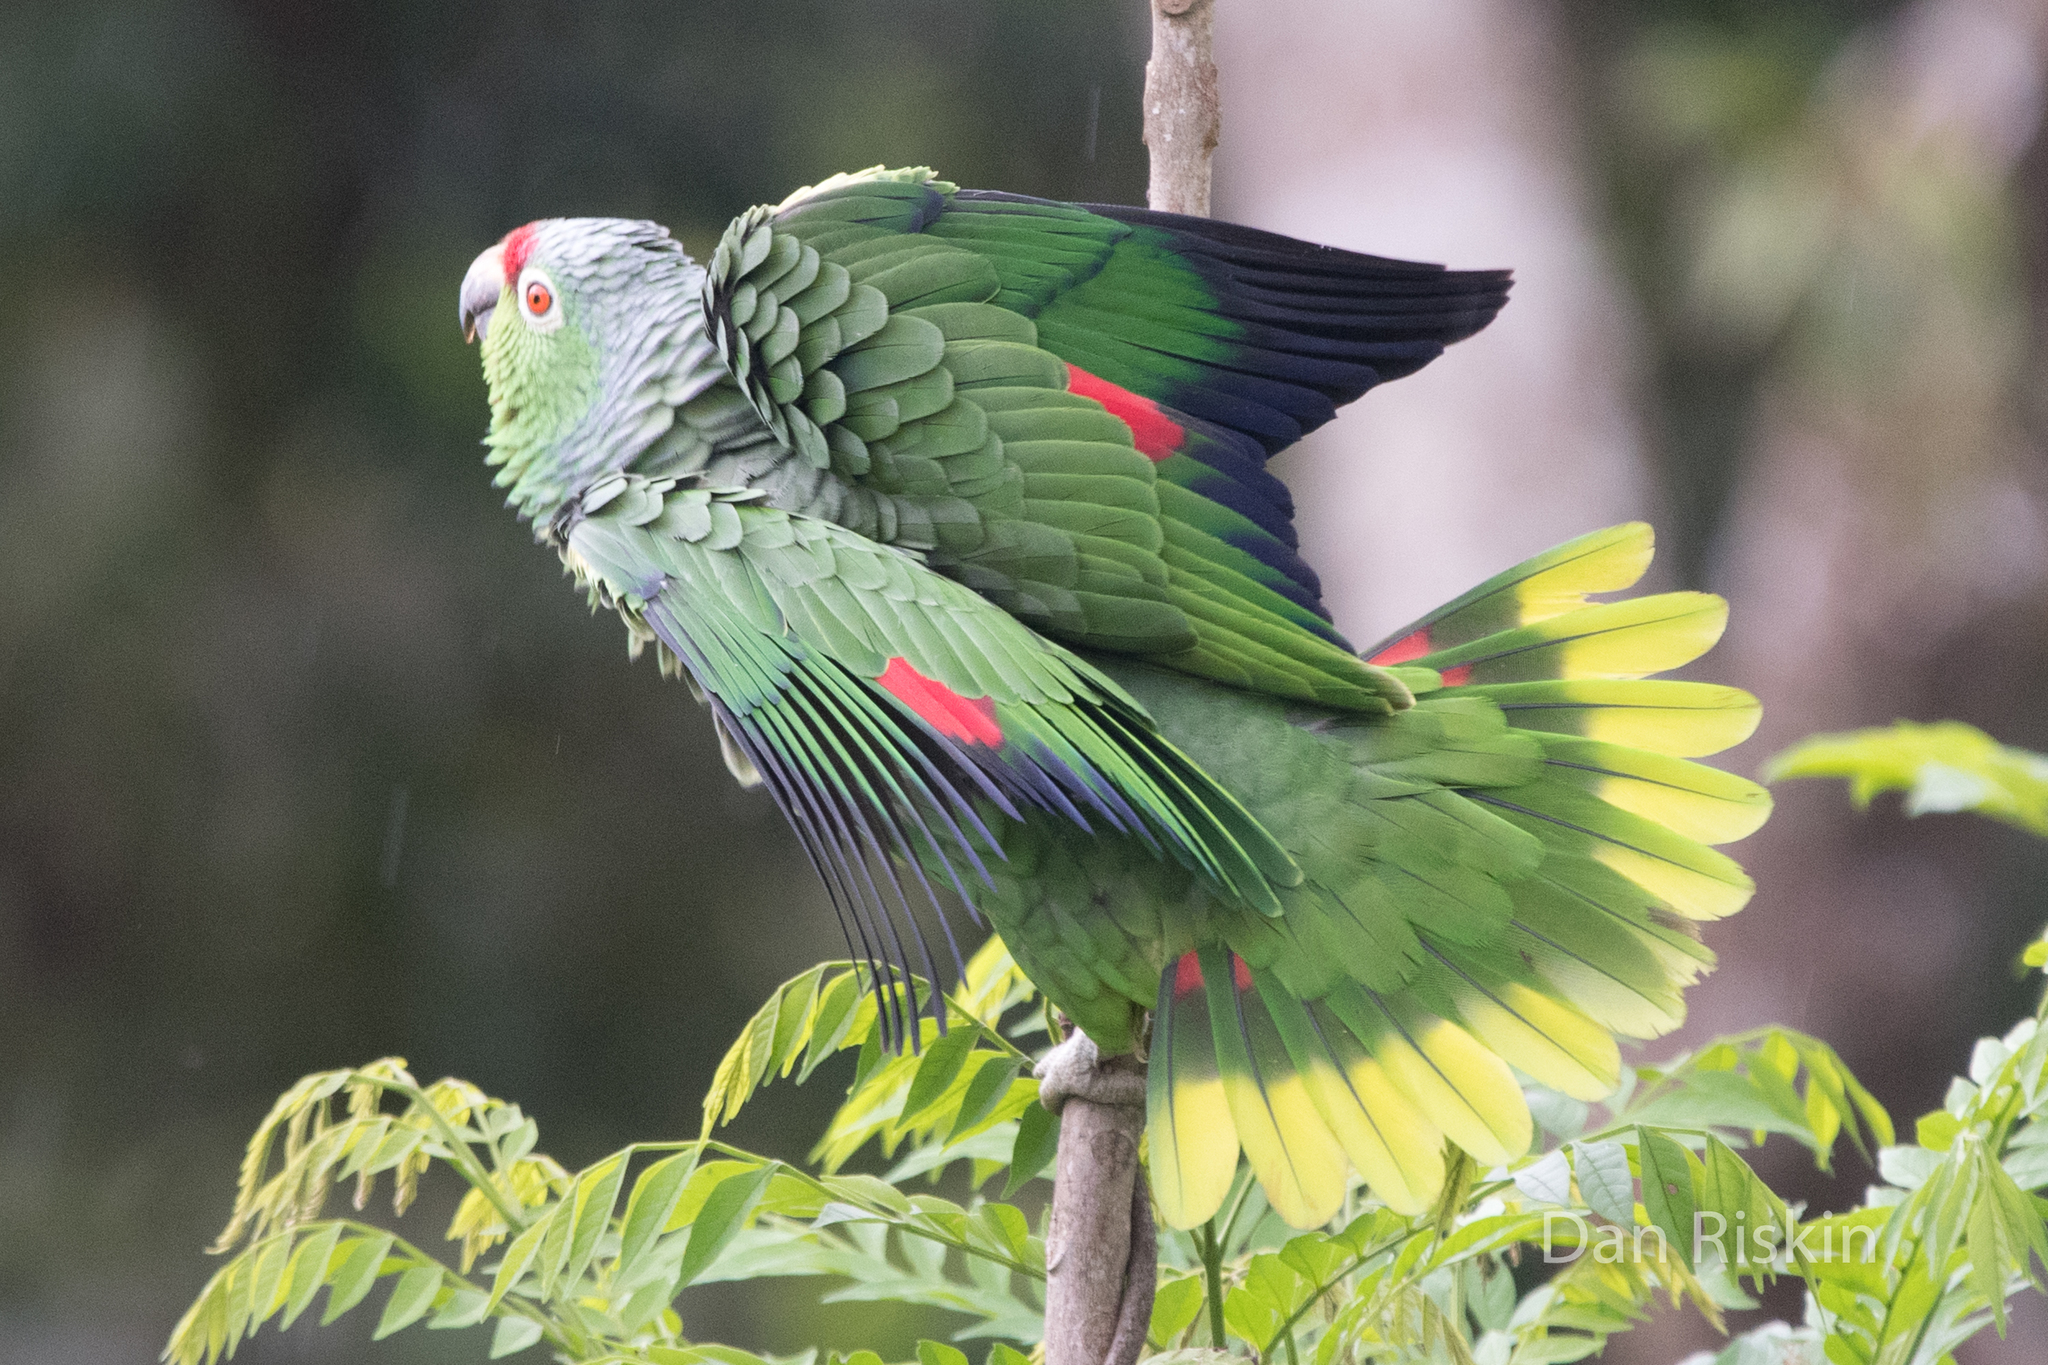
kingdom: Animalia
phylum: Chordata
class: Aves
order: Psittaciformes
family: Psittacidae
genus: Amazona
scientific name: Amazona autumnalis
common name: Red-lored amazon
